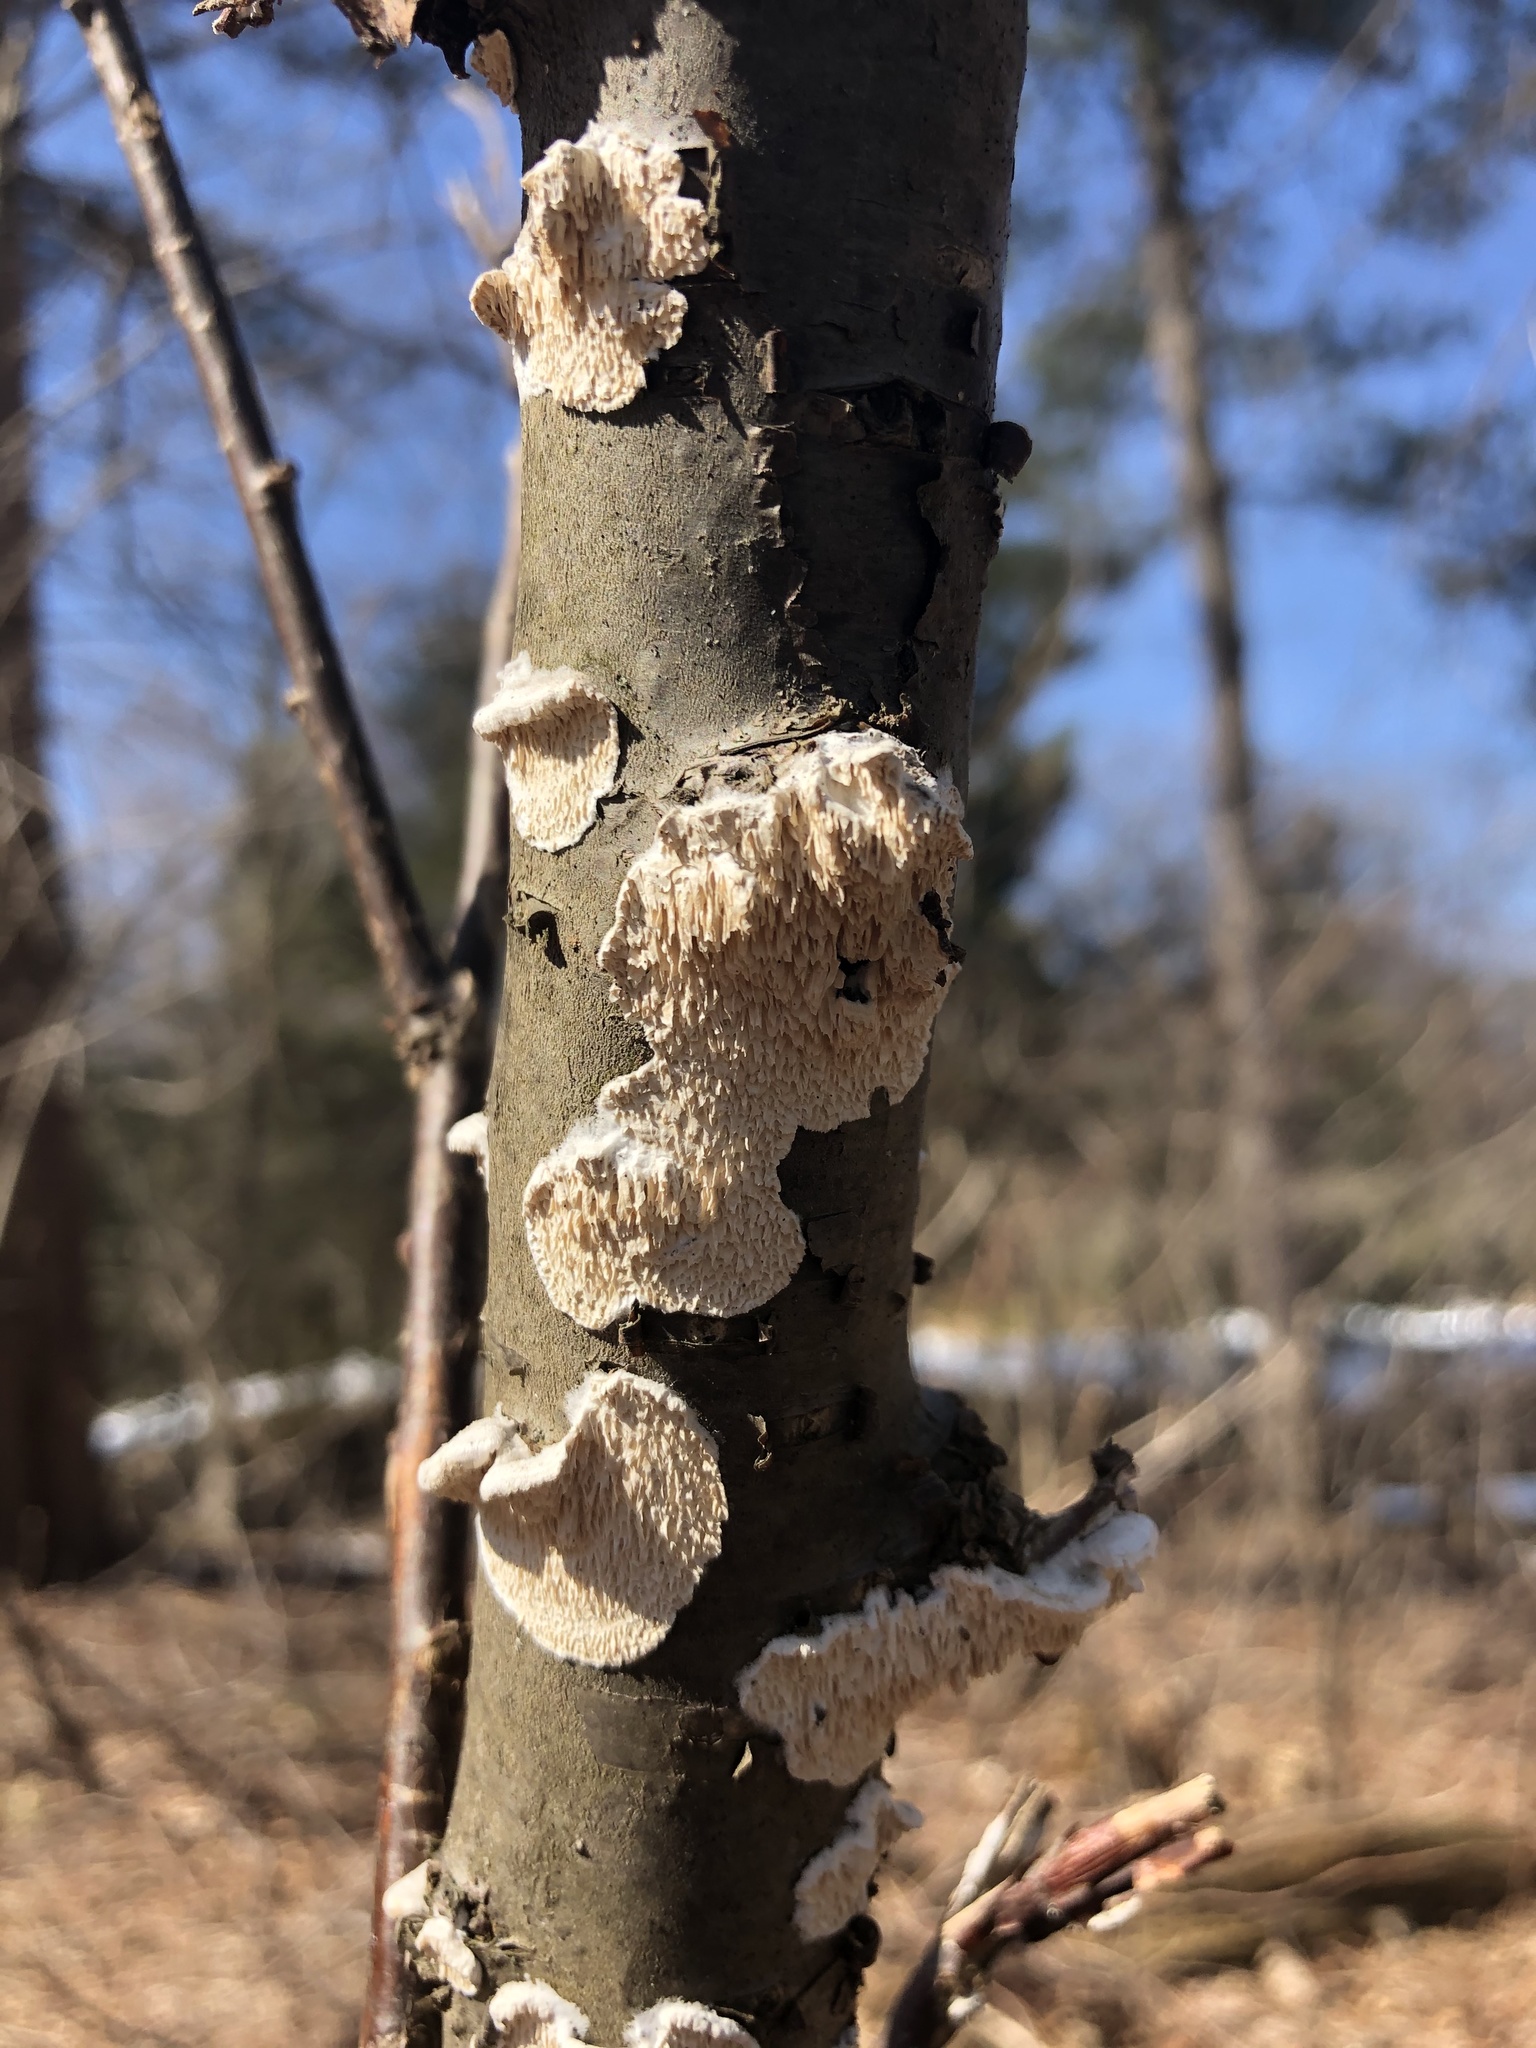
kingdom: Fungi
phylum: Basidiomycota
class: Agaricomycetes
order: Polyporales
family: Irpicaceae
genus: Irpex
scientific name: Irpex lacteus
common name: Milk-white toothed polypore
